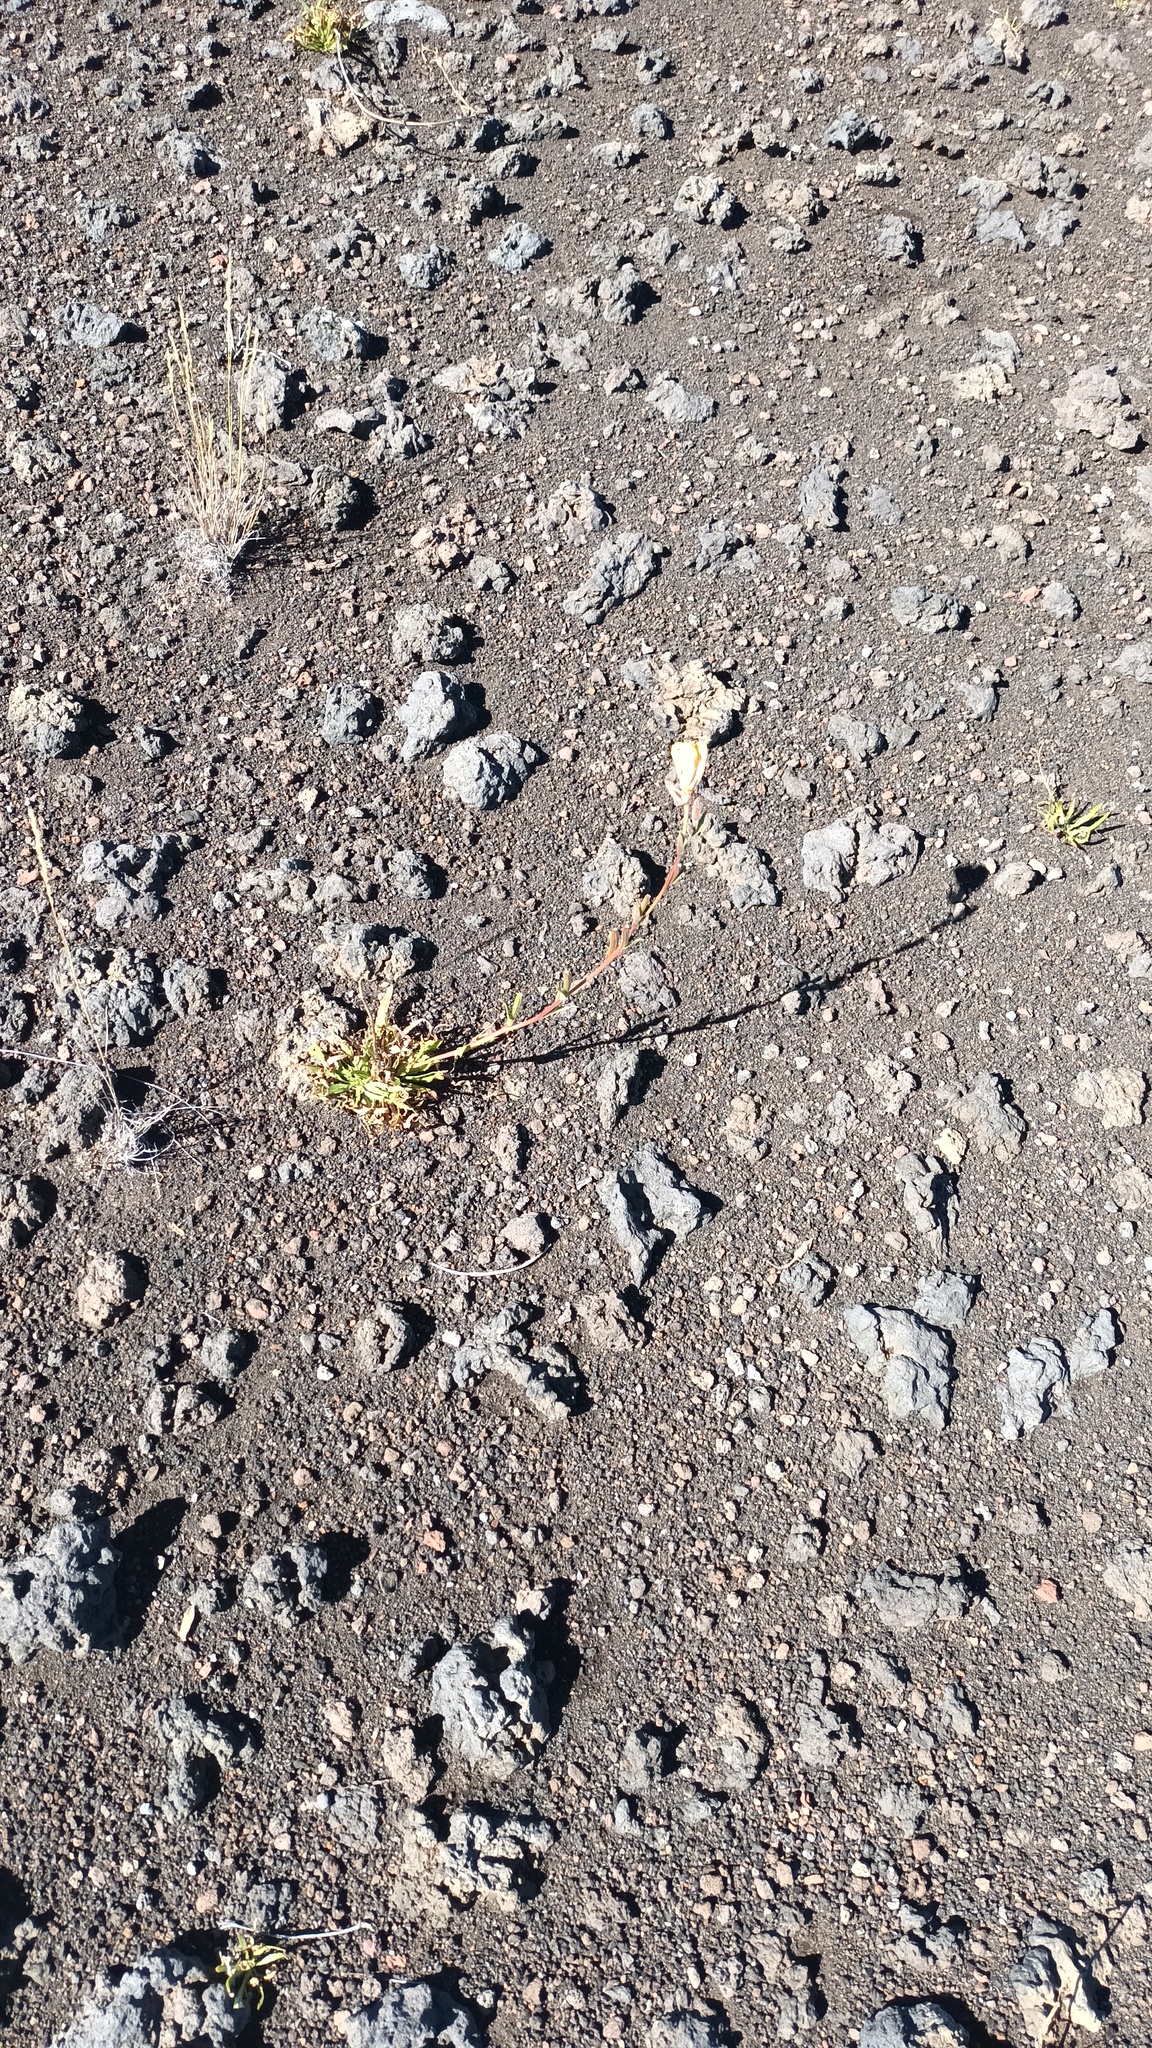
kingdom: Plantae
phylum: Tracheophyta
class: Magnoliopsida
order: Myrtales
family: Onagraceae
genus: Oenothera
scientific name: Oenothera stricta
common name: Fragrant evening-primrose
